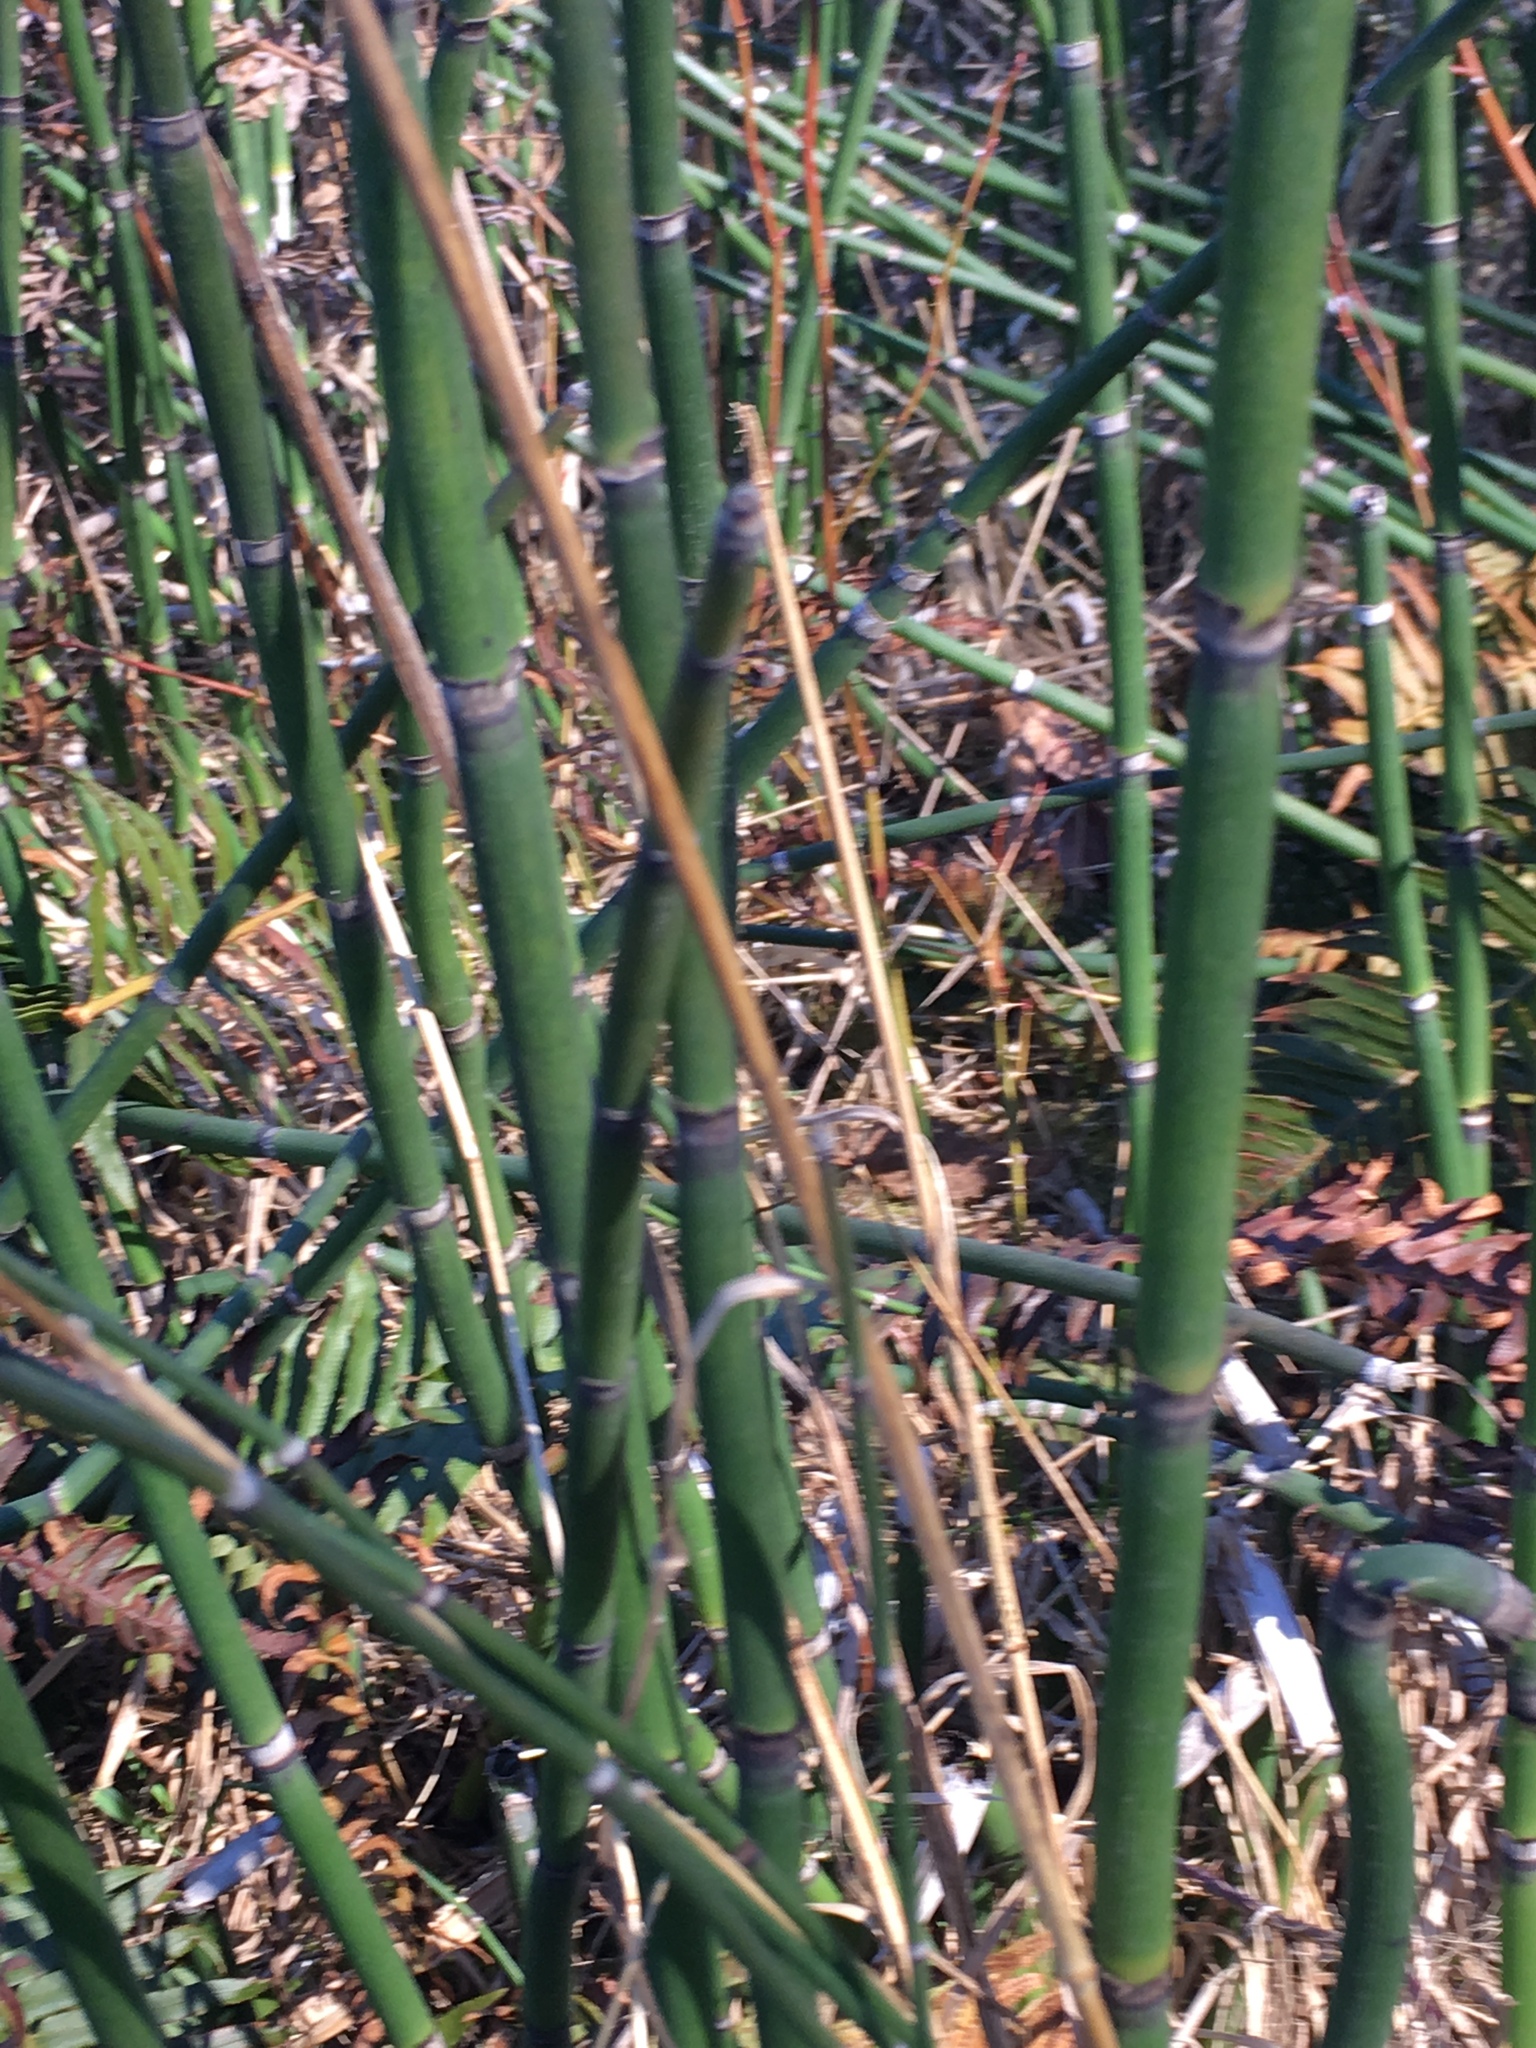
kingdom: Plantae
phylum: Tracheophyta
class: Polypodiopsida
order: Equisetales
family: Equisetaceae
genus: Equisetum
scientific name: Equisetum hyemale
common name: Rough horsetail
